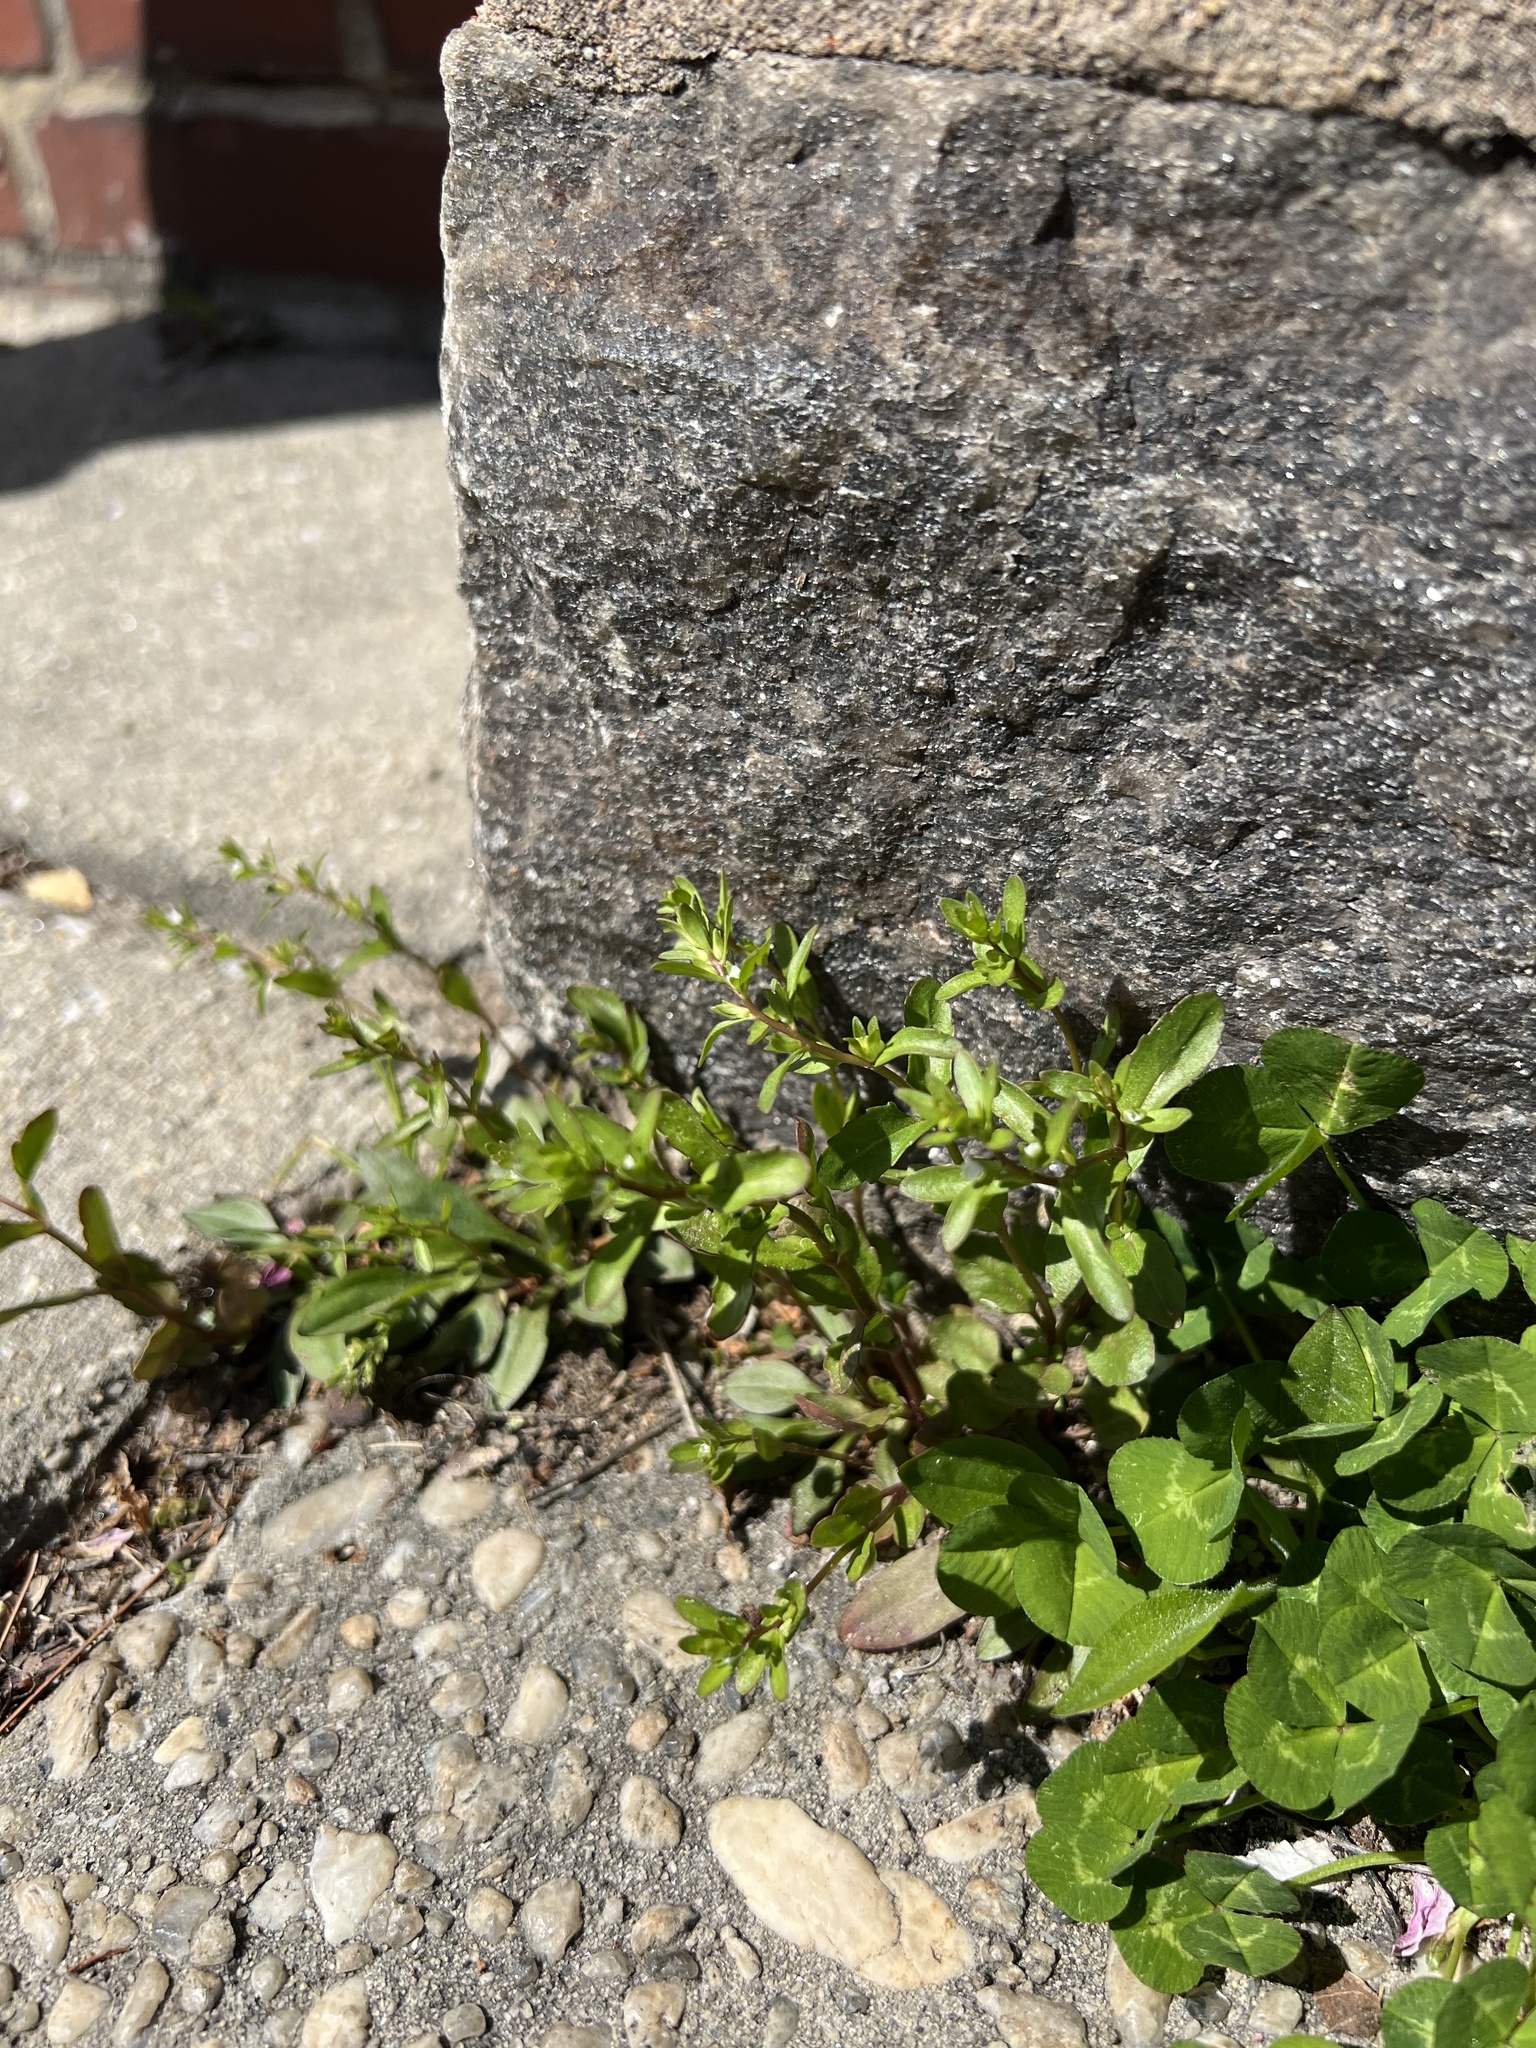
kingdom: Plantae
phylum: Tracheophyta
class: Magnoliopsida
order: Lamiales
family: Plantaginaceae
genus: Veronica
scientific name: Veronica peregrina
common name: Neckweed
